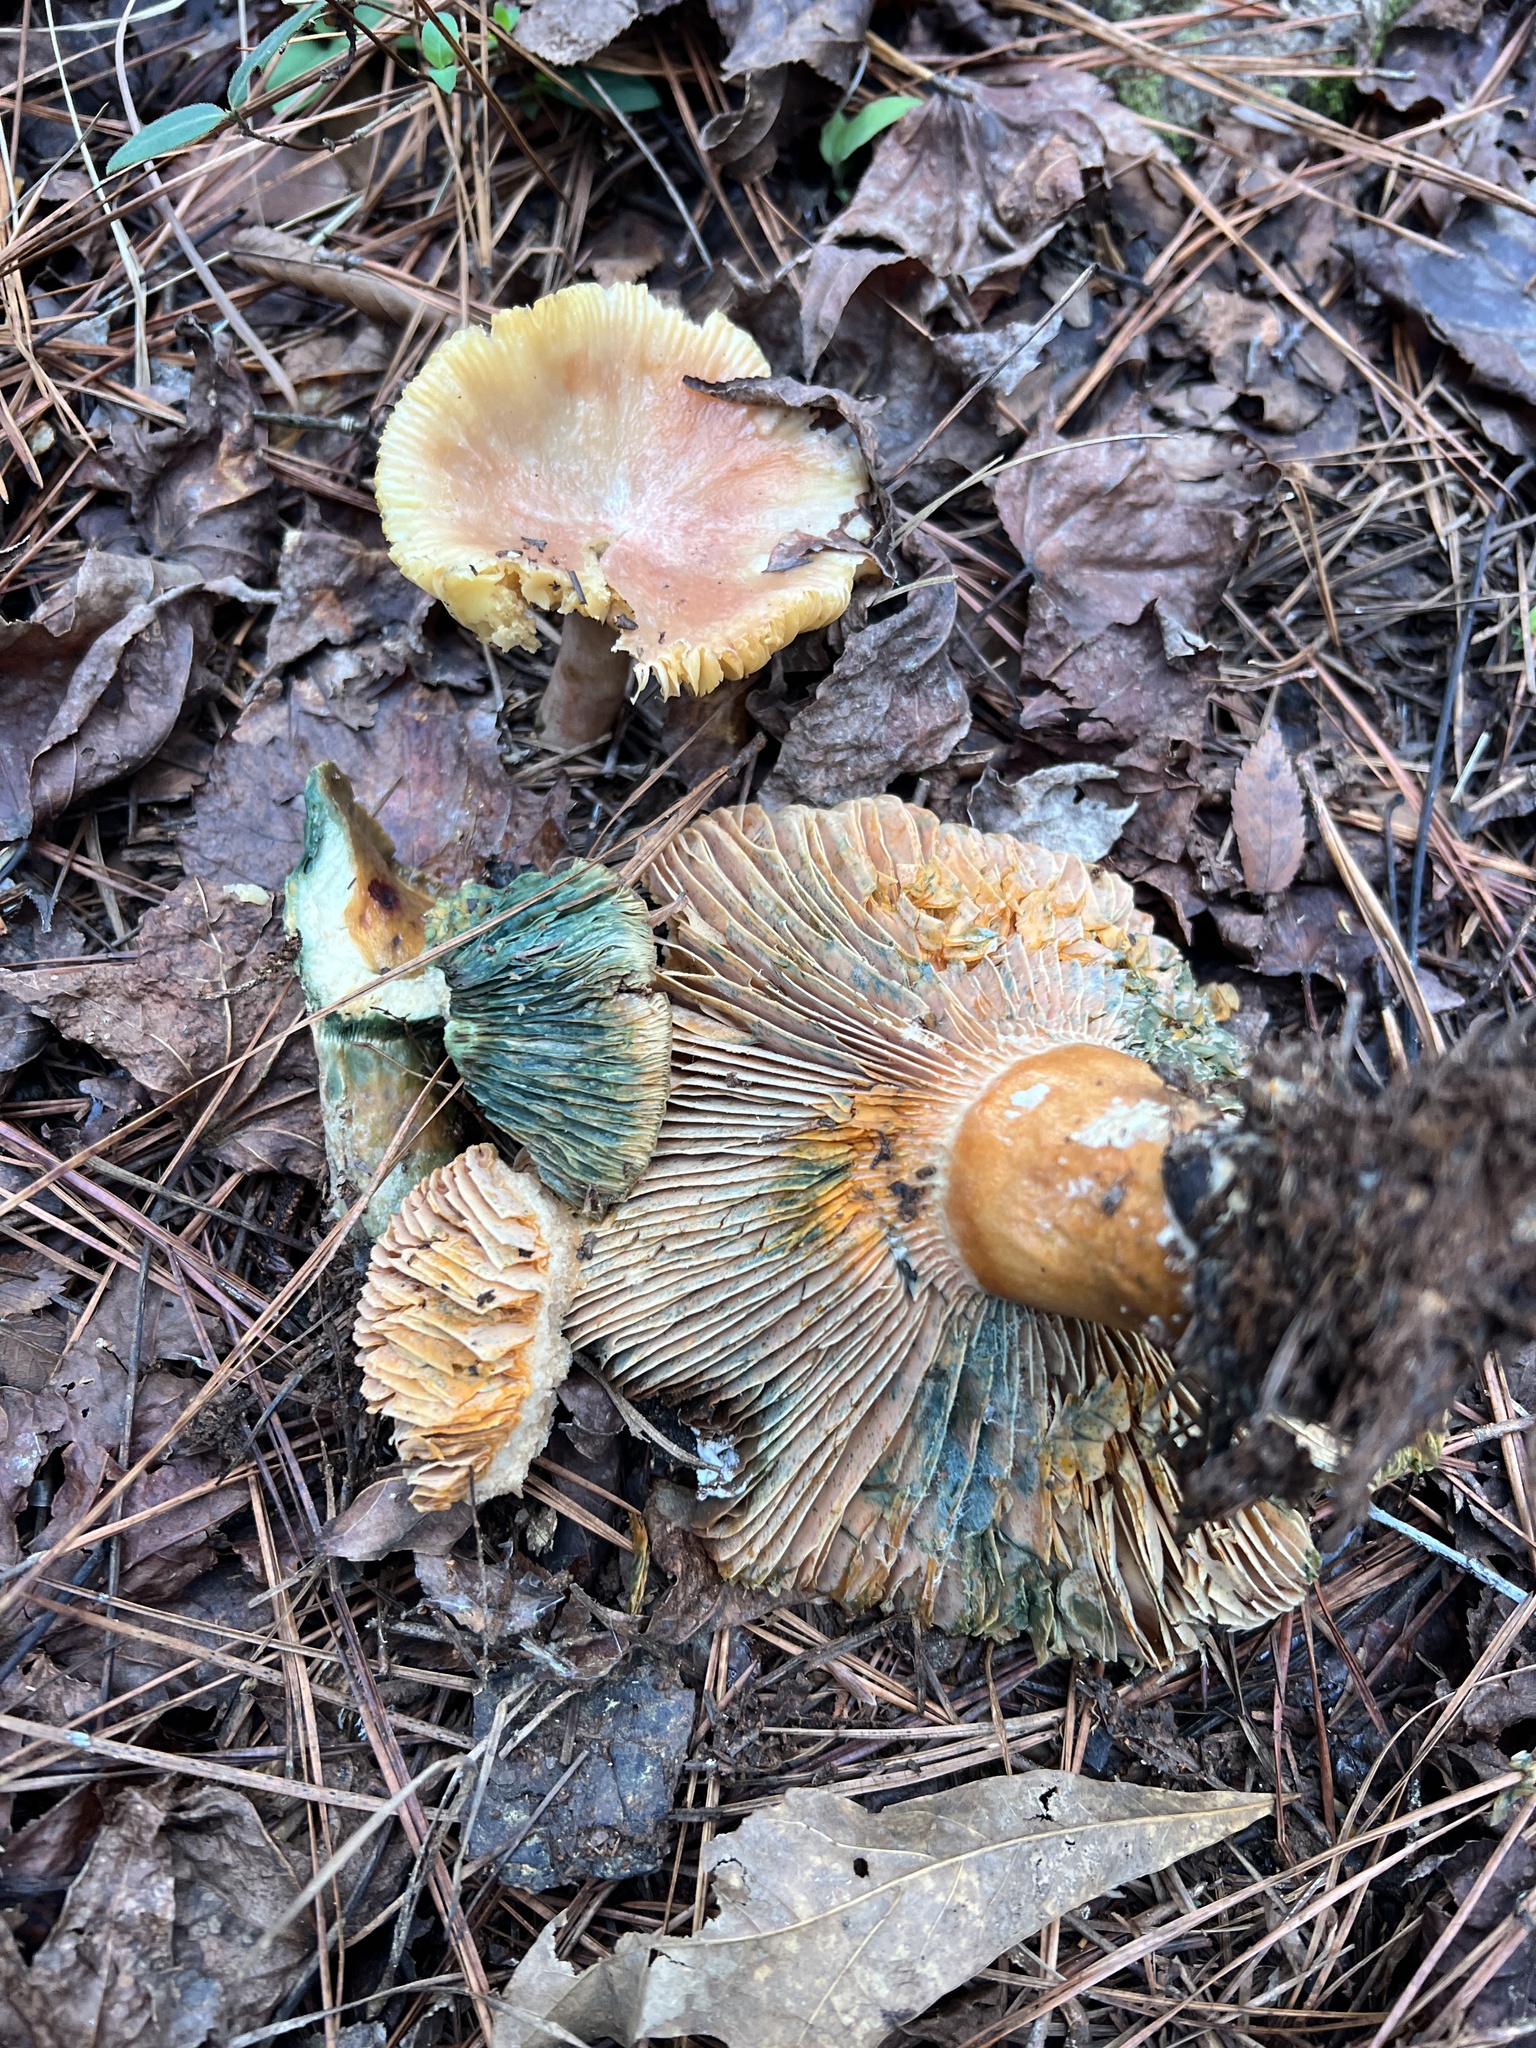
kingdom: Fungi
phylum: Basidiomycota
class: Agaricomycetes
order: Russulales
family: Russulaceae
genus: Lactarius
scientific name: Lactarius chelidonium
